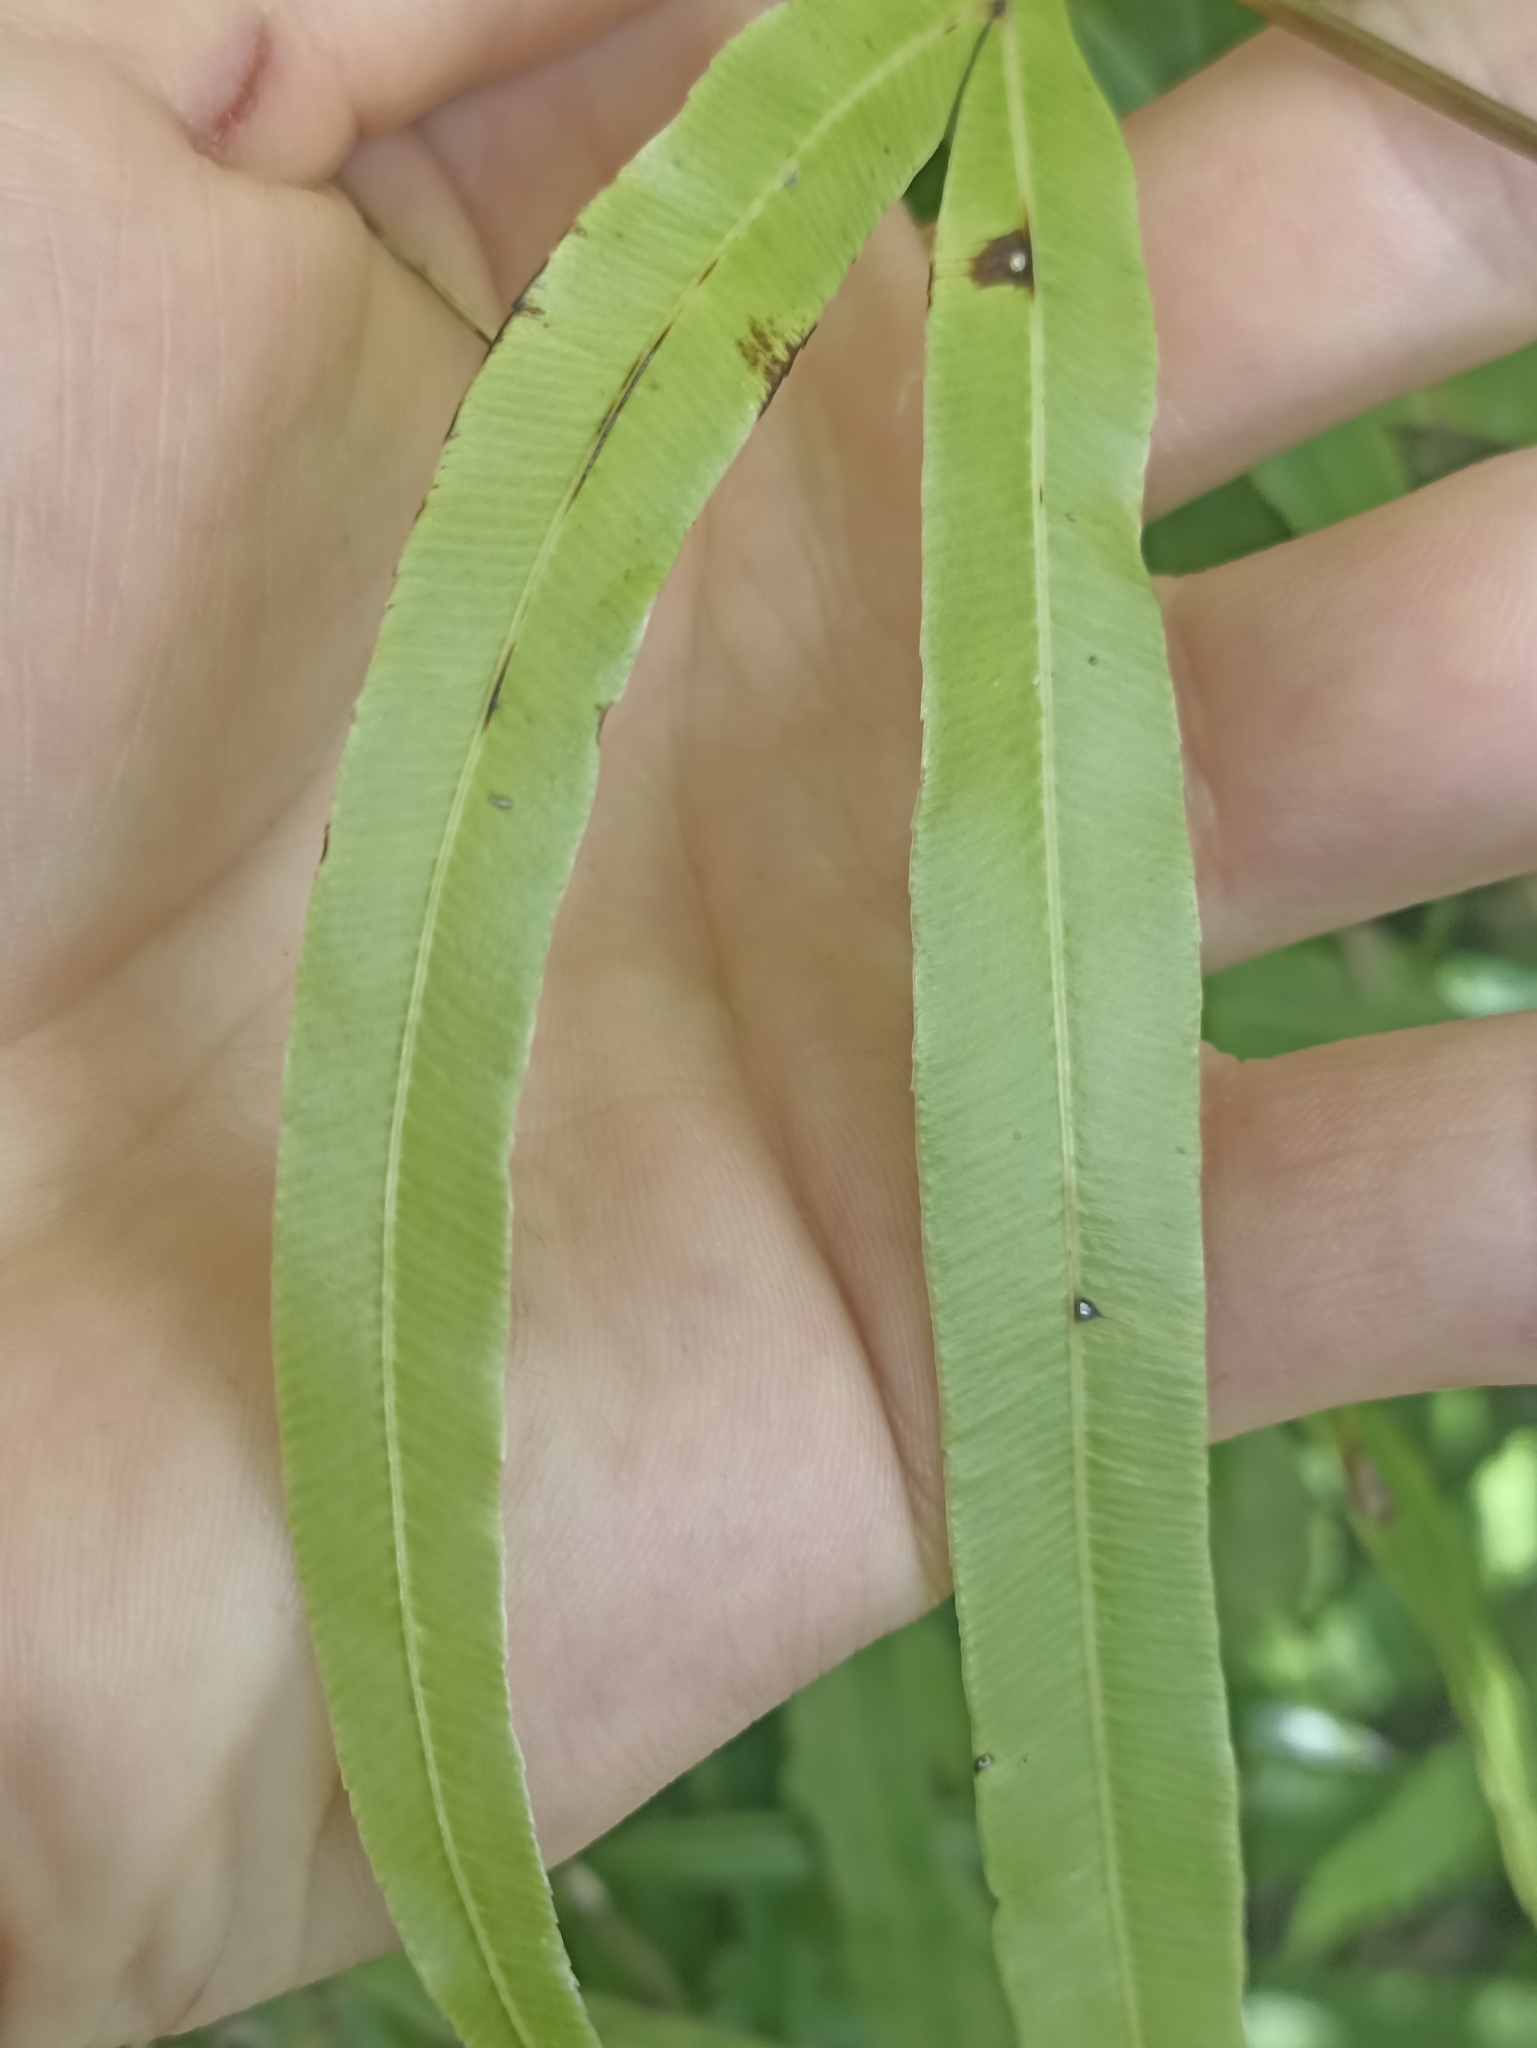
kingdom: Plantae
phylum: Tracheophyta
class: Polypodiopsida
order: Polypodiales
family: Pteridaceae
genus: Pteris
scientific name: Pteris cretica
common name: Ribbon fern
